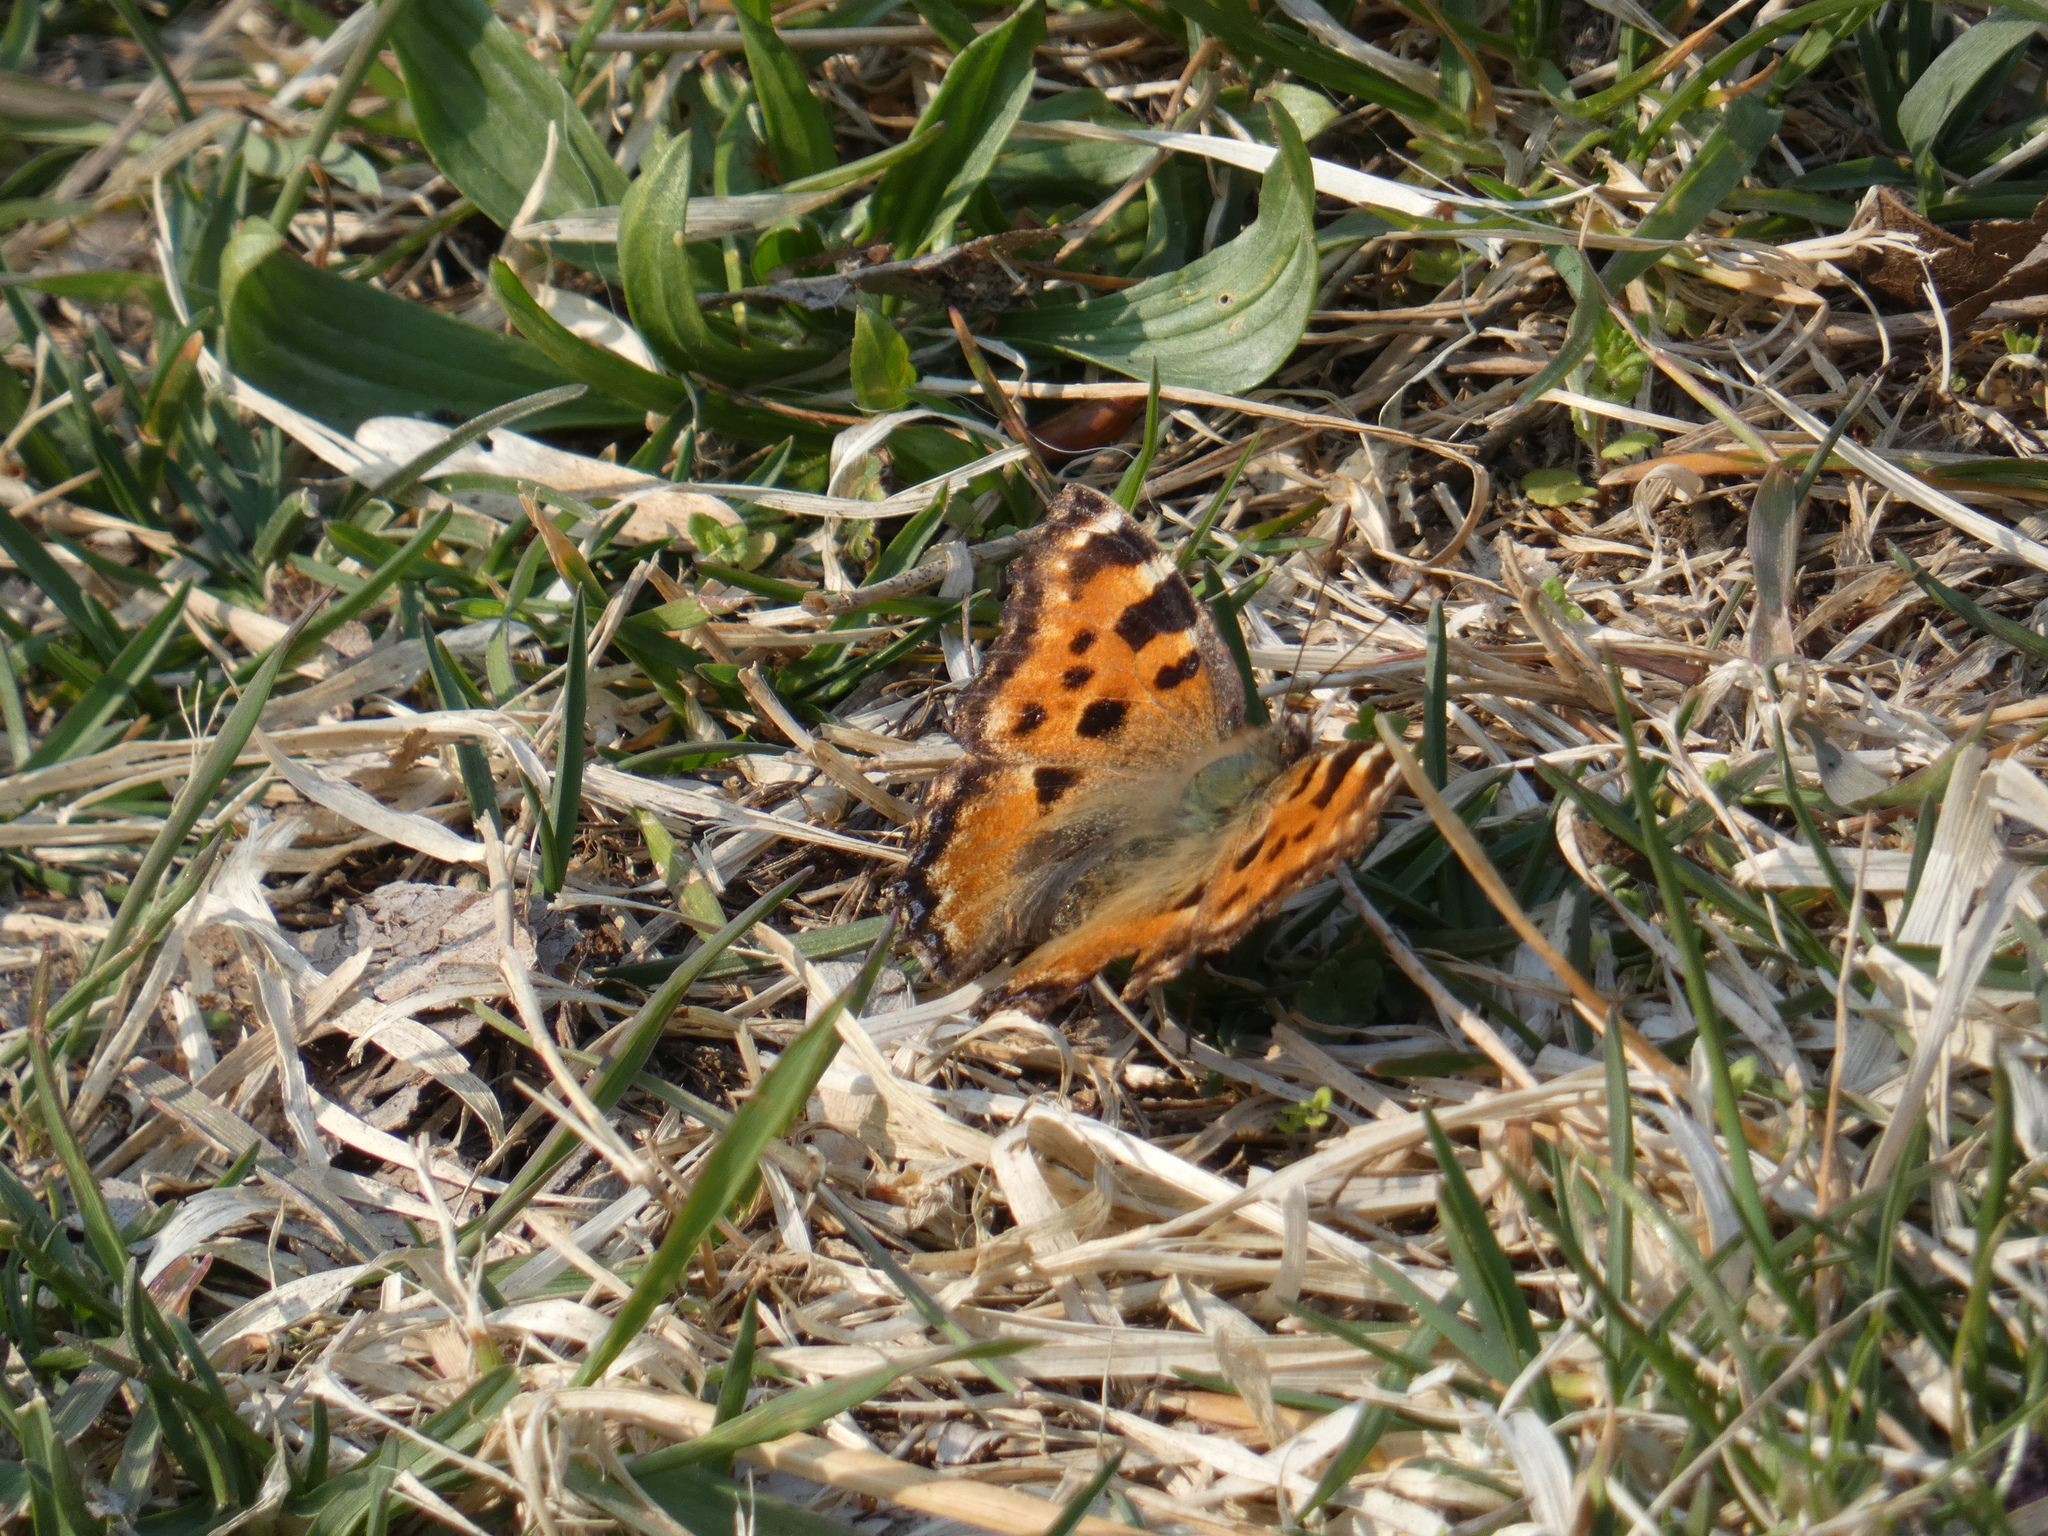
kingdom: Animalia
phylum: Arthropoda
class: Insecta
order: Lepidoptera
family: Nymphalidae
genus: Nymphalis
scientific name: Nymphalis polychloros
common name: Large tortoiseshell
